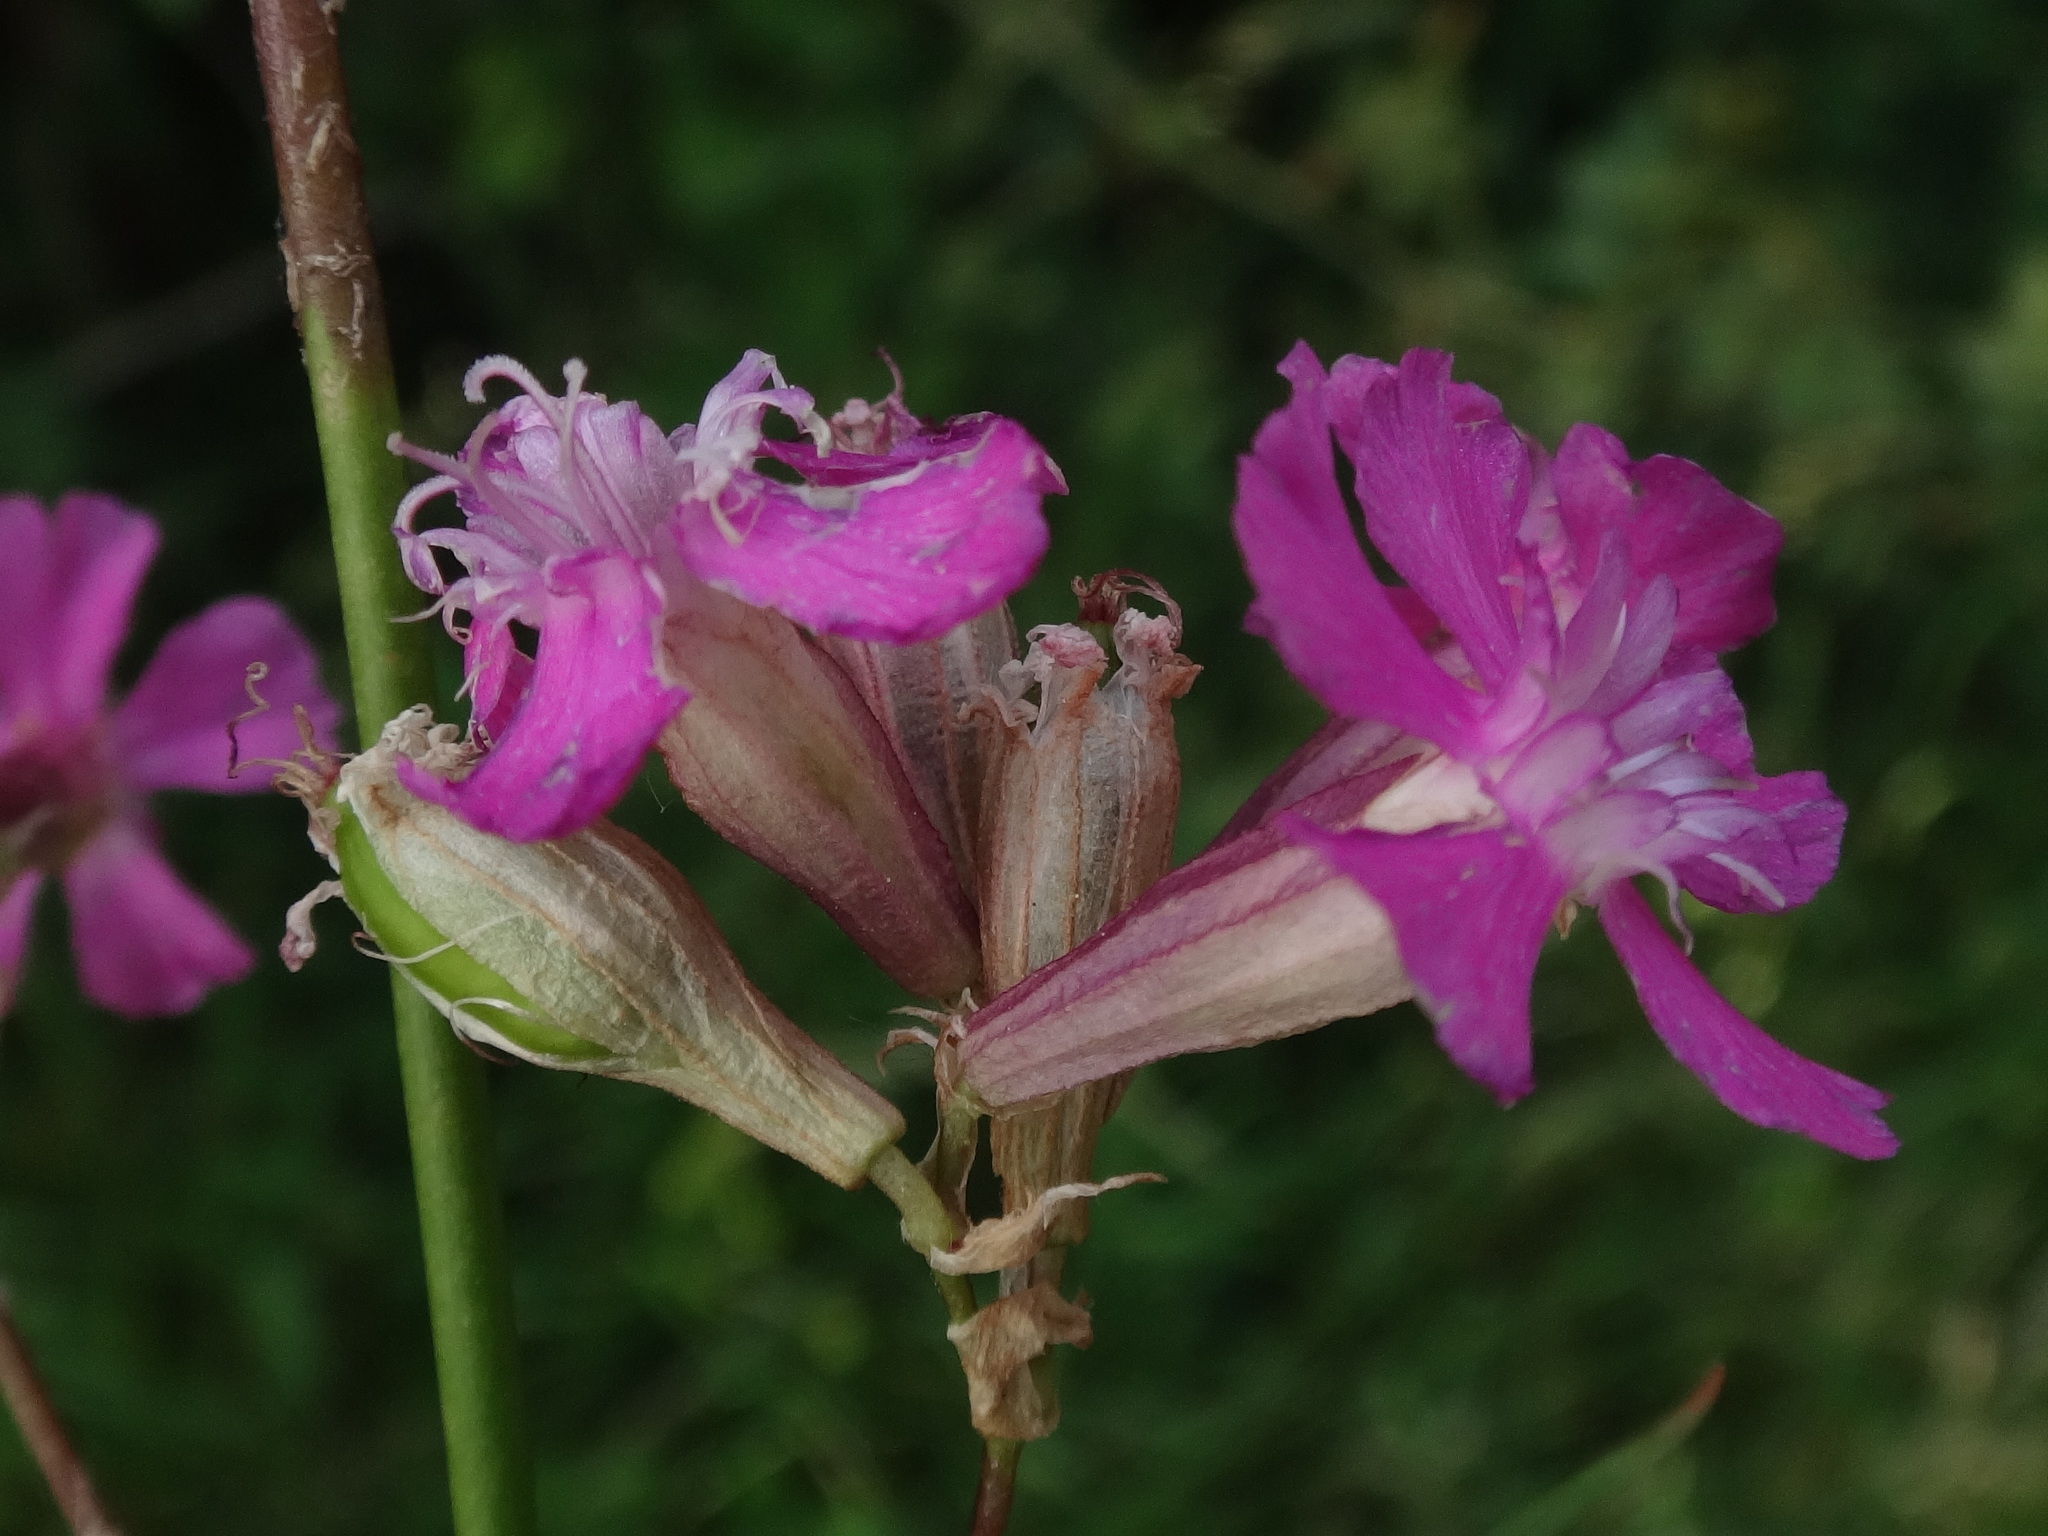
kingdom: Plantae
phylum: Tracheophyta
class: Magnoliopsida
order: Caryophyllales
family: Caryophyllaceae
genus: Viscaria
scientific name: Viscaria vulgaris
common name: Clammy campion
